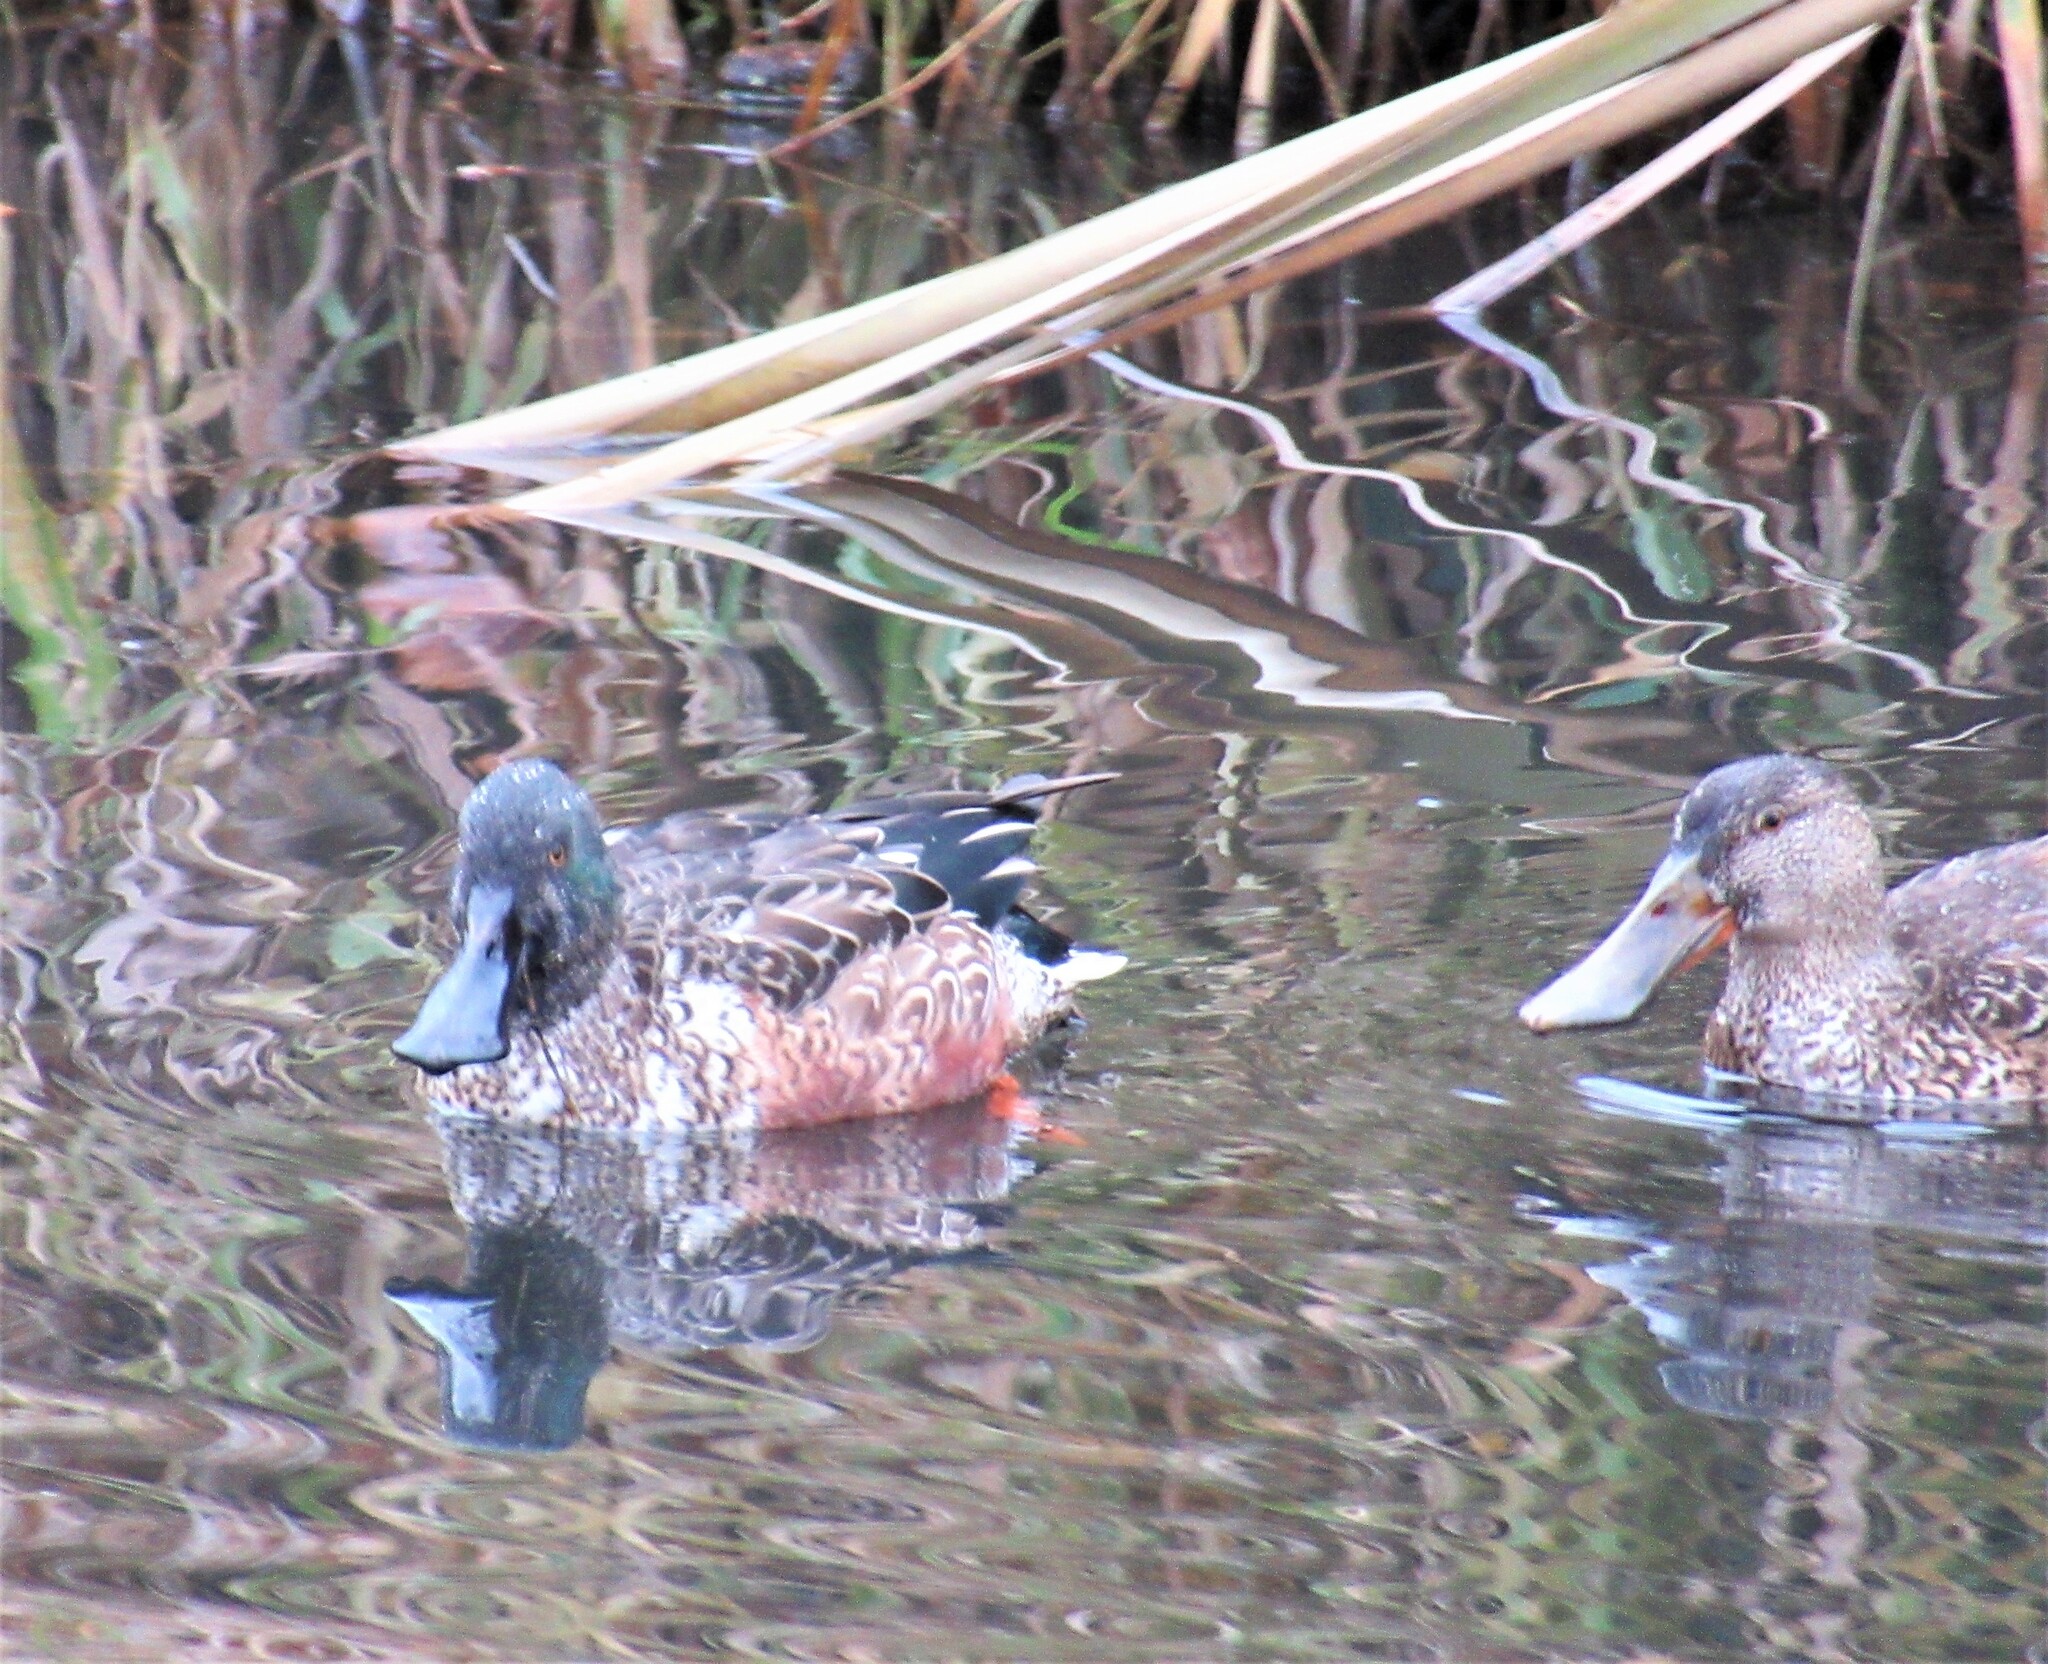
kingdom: Animalia
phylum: Chordata
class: Aves
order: Anseriformes
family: Anatidae
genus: Spatula
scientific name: Spatula clypeata
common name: Northern shoveler
